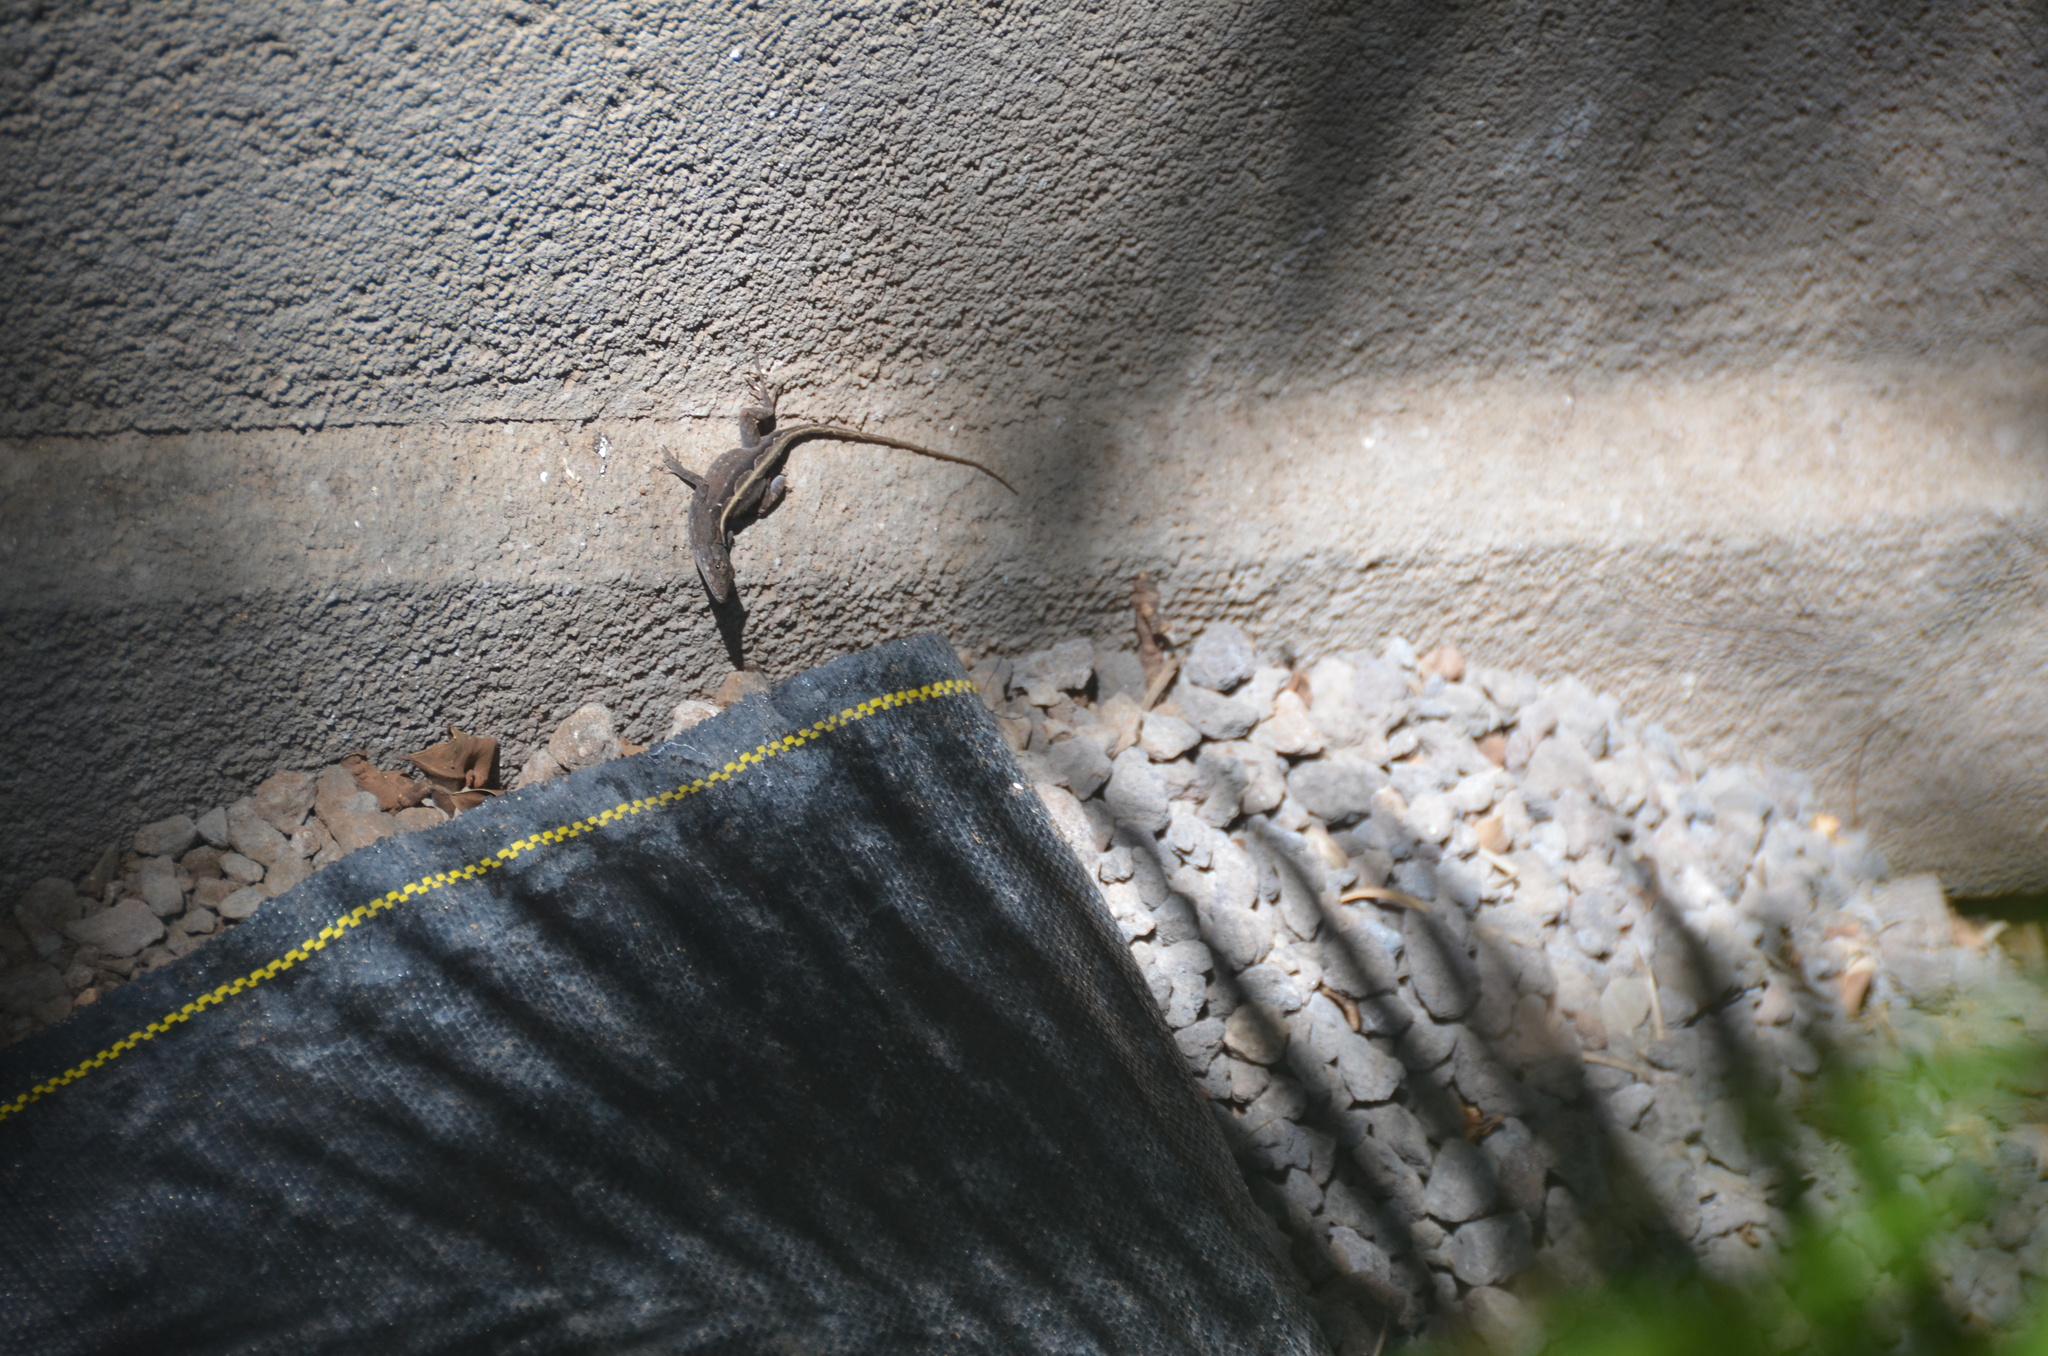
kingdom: Animalia
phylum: Chordata
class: Squamata
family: Dactyloidae
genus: Anolis
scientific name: Anolis sagrei
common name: Brown anole
